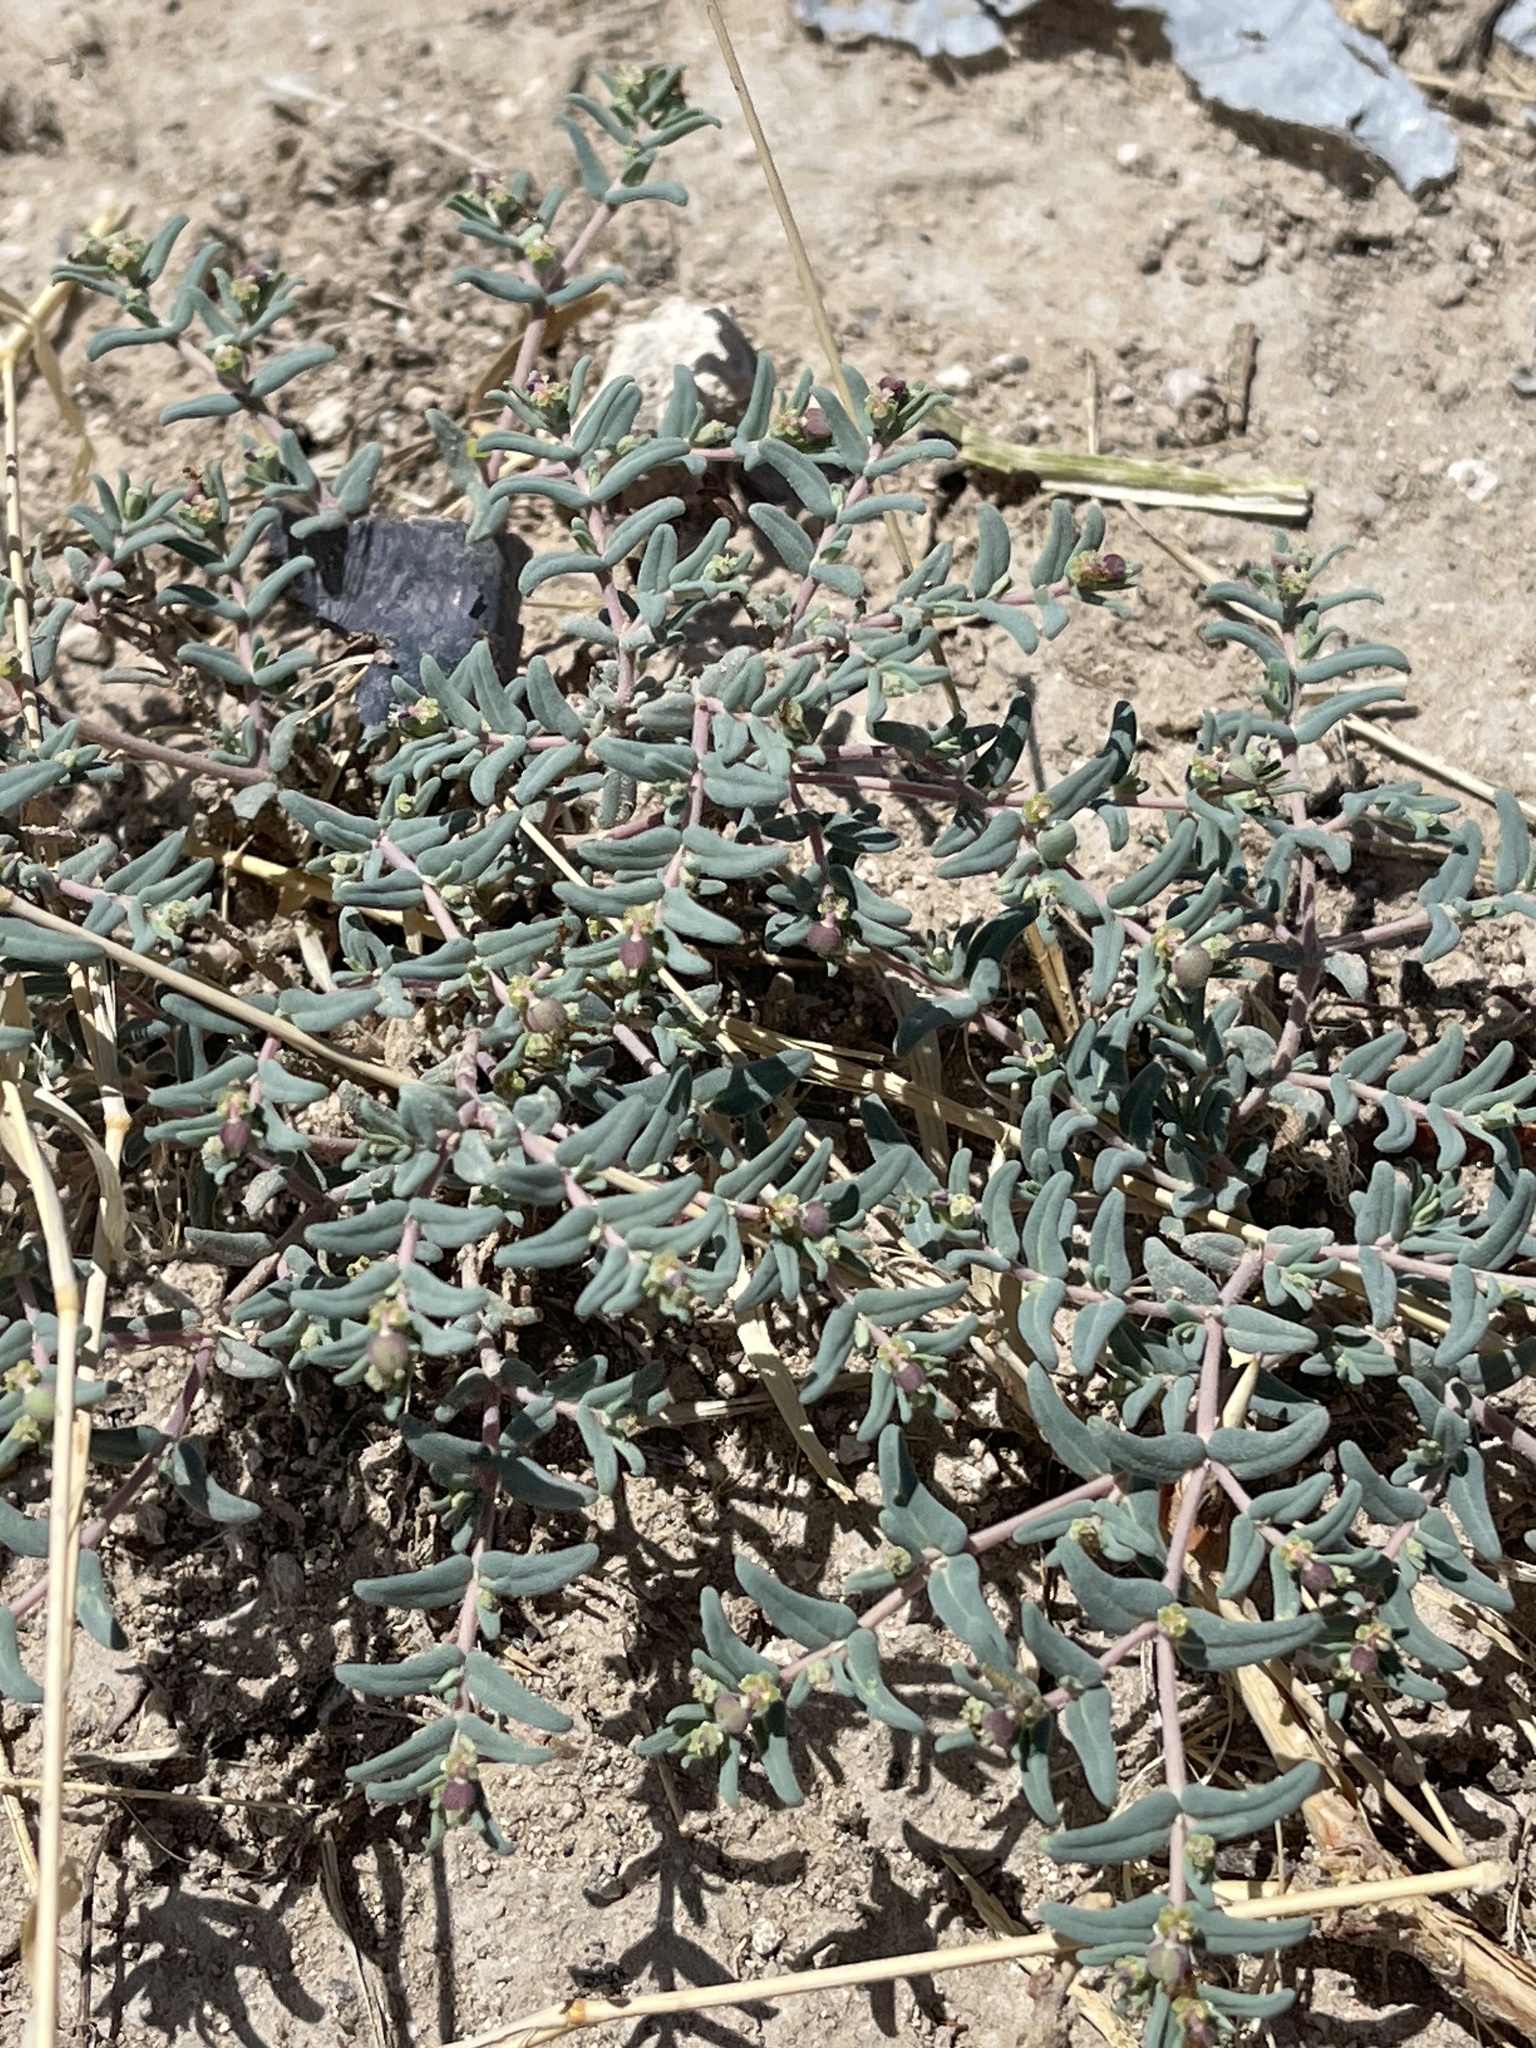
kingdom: Plantae
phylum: Tracheophyta
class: Magnoliopsida
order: Malpighiales
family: Euphorbiaceae
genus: Euphorbia
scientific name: Euphorbia lata
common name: Hoary euphorbia
